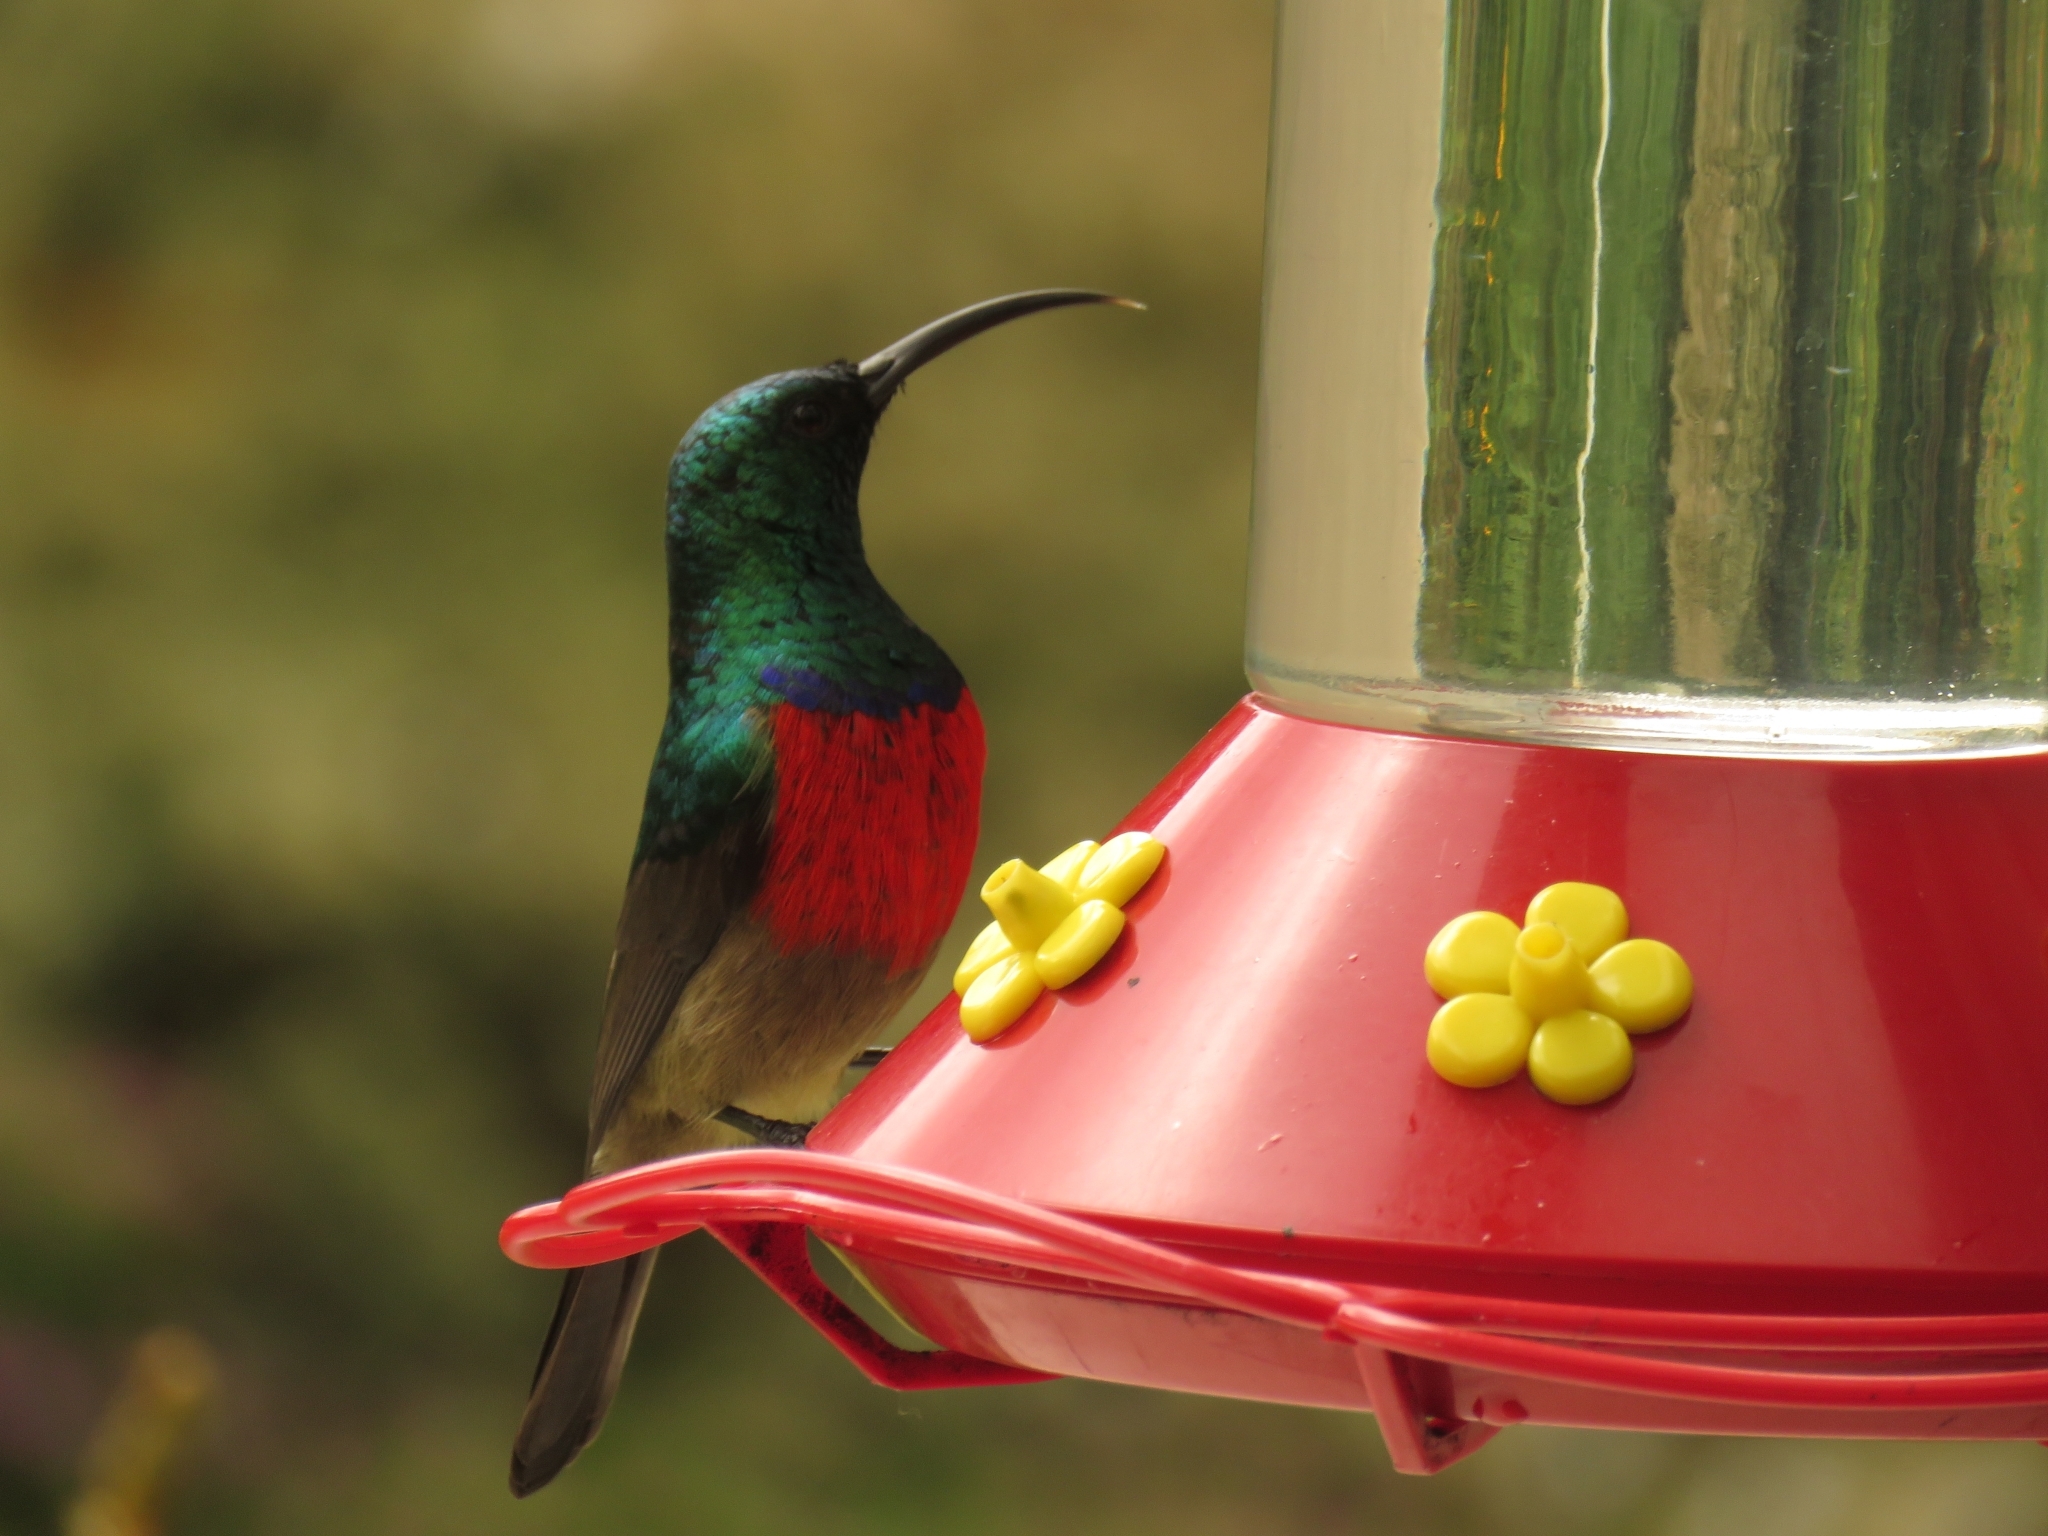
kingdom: Animalia
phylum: Chordata
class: Aves
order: Passeriformes
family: Nectariniidae
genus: Cinnyris
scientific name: Cinnyris afer
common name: Greater double-collared sunbird
